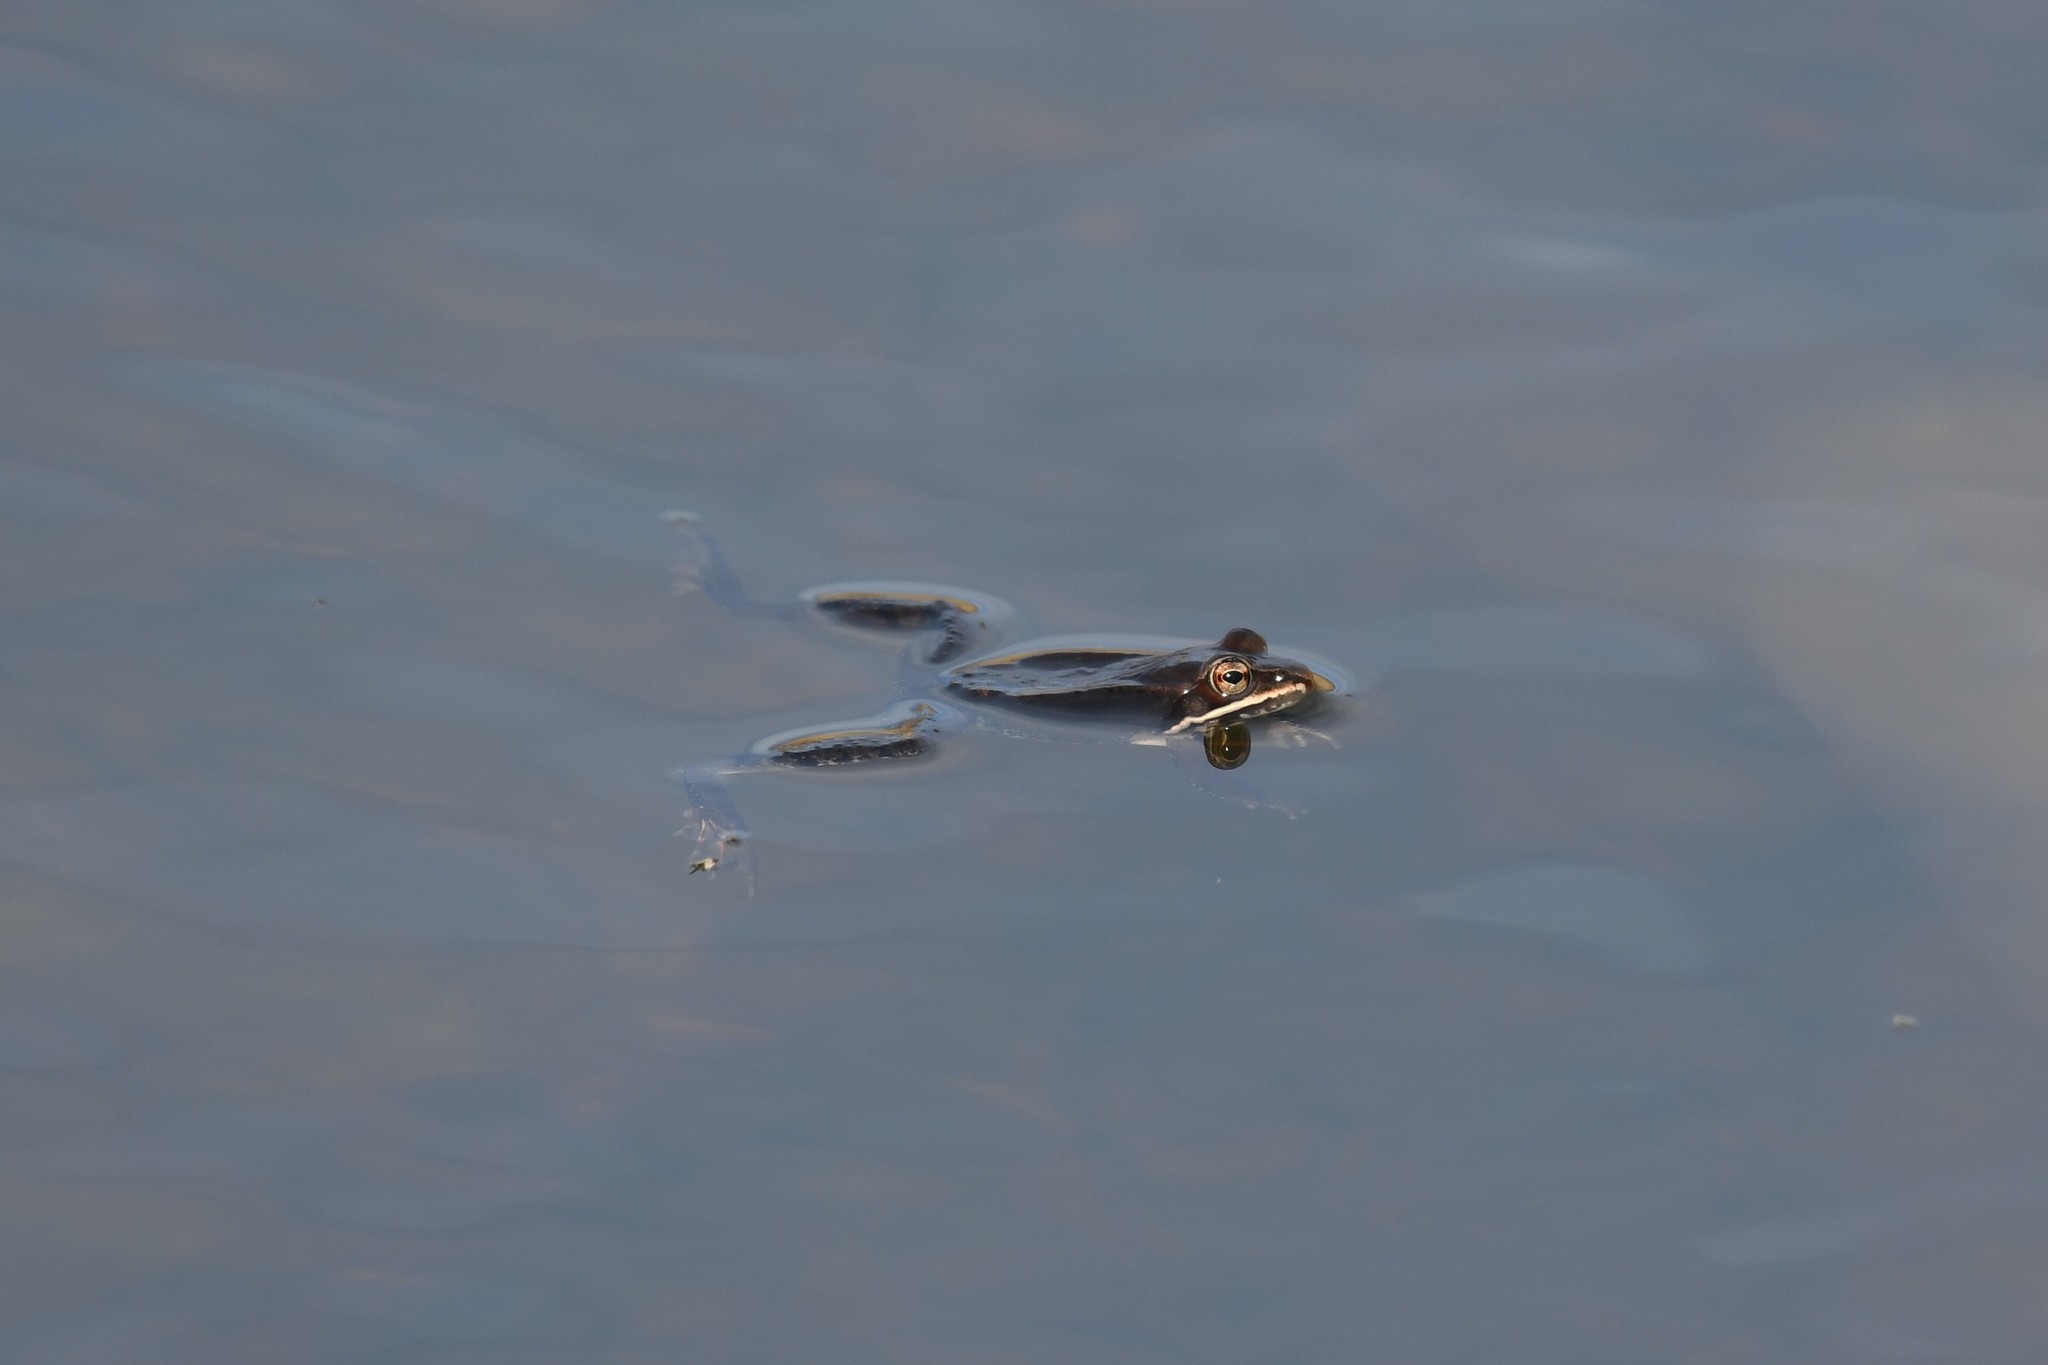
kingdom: Animalia
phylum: Chordata
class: Amphibia
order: Anura
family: Ranidae
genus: Lithobates
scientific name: Lithobates sylvaticus
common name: Wood frog
